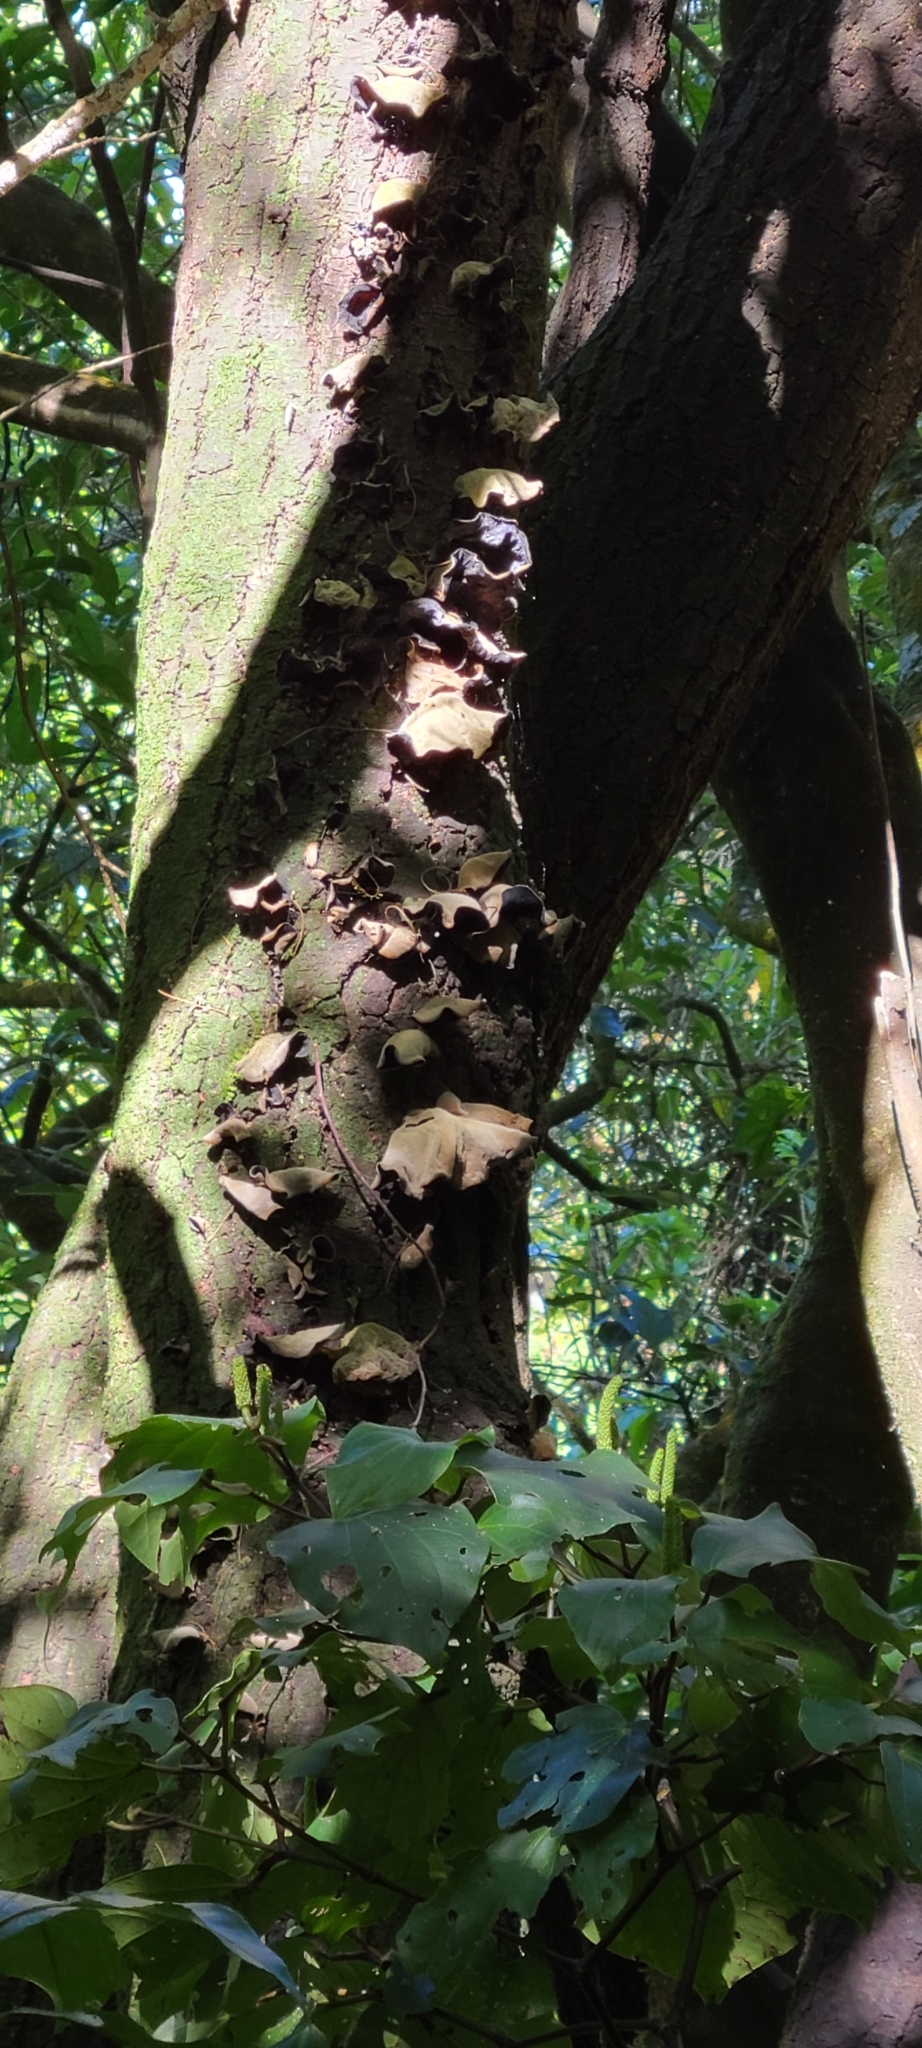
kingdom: Fungi
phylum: Basidiomycota
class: Agaricomycetes
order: Auriculariales
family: Auriculariaceae
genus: Auricularia
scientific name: Auricularia cornea
